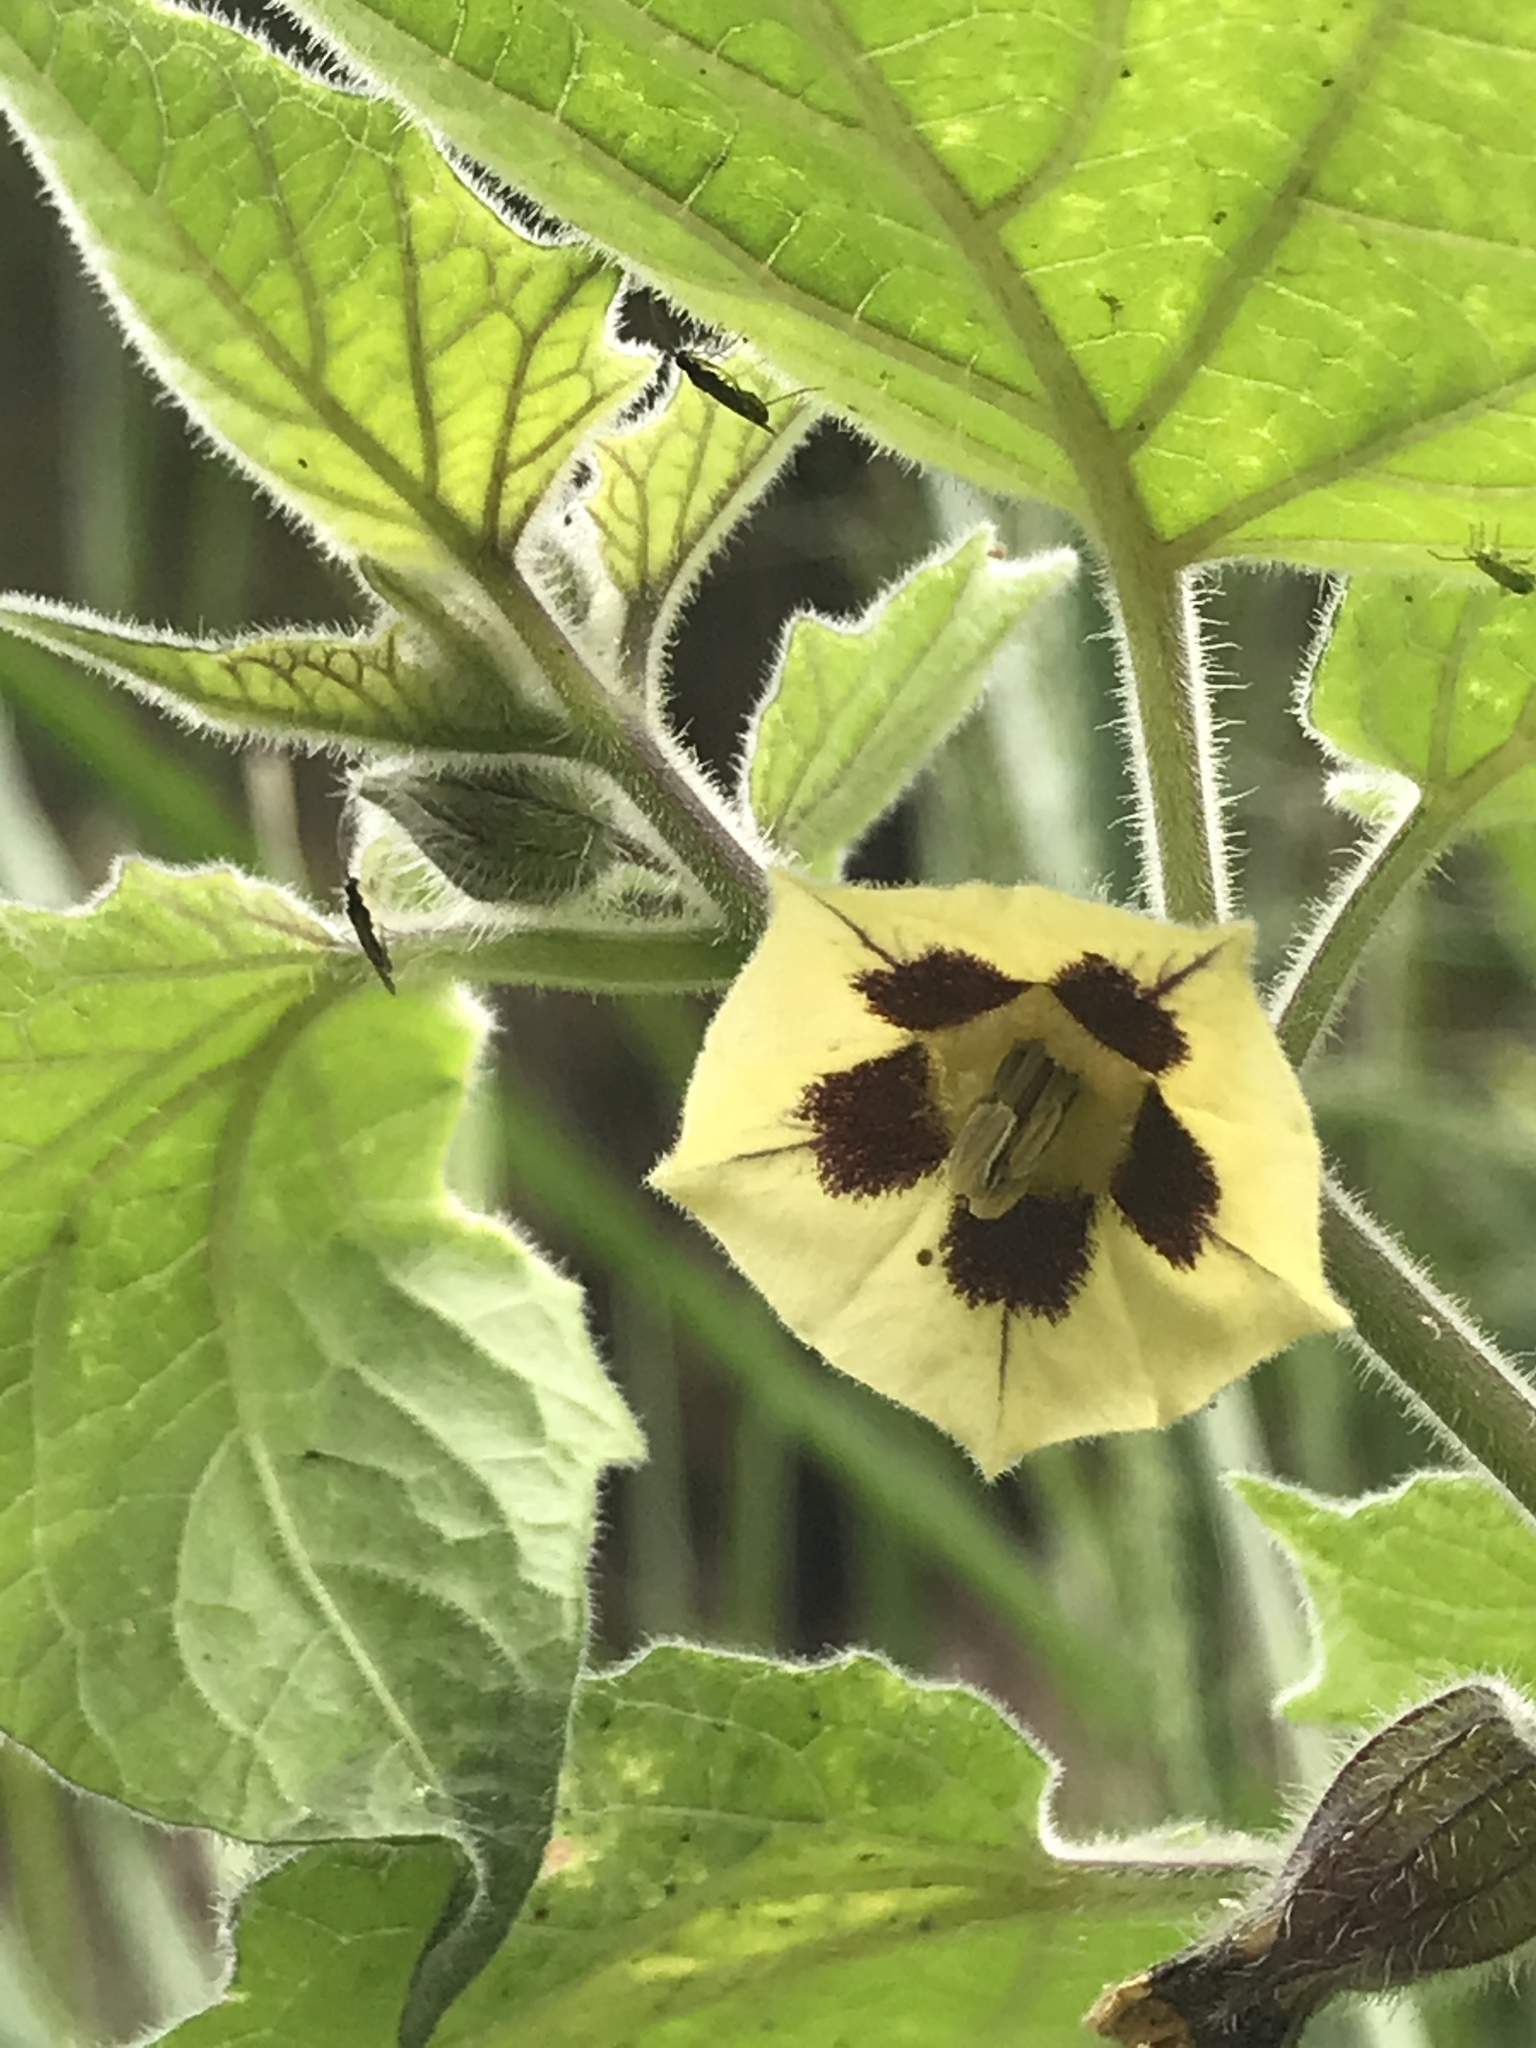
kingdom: Plantae
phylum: Tracheophyta
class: Magnoliopsida
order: Solanales
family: Solanaceae
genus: Physalis
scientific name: Physalis peruviana
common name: Cape-gooseberry
